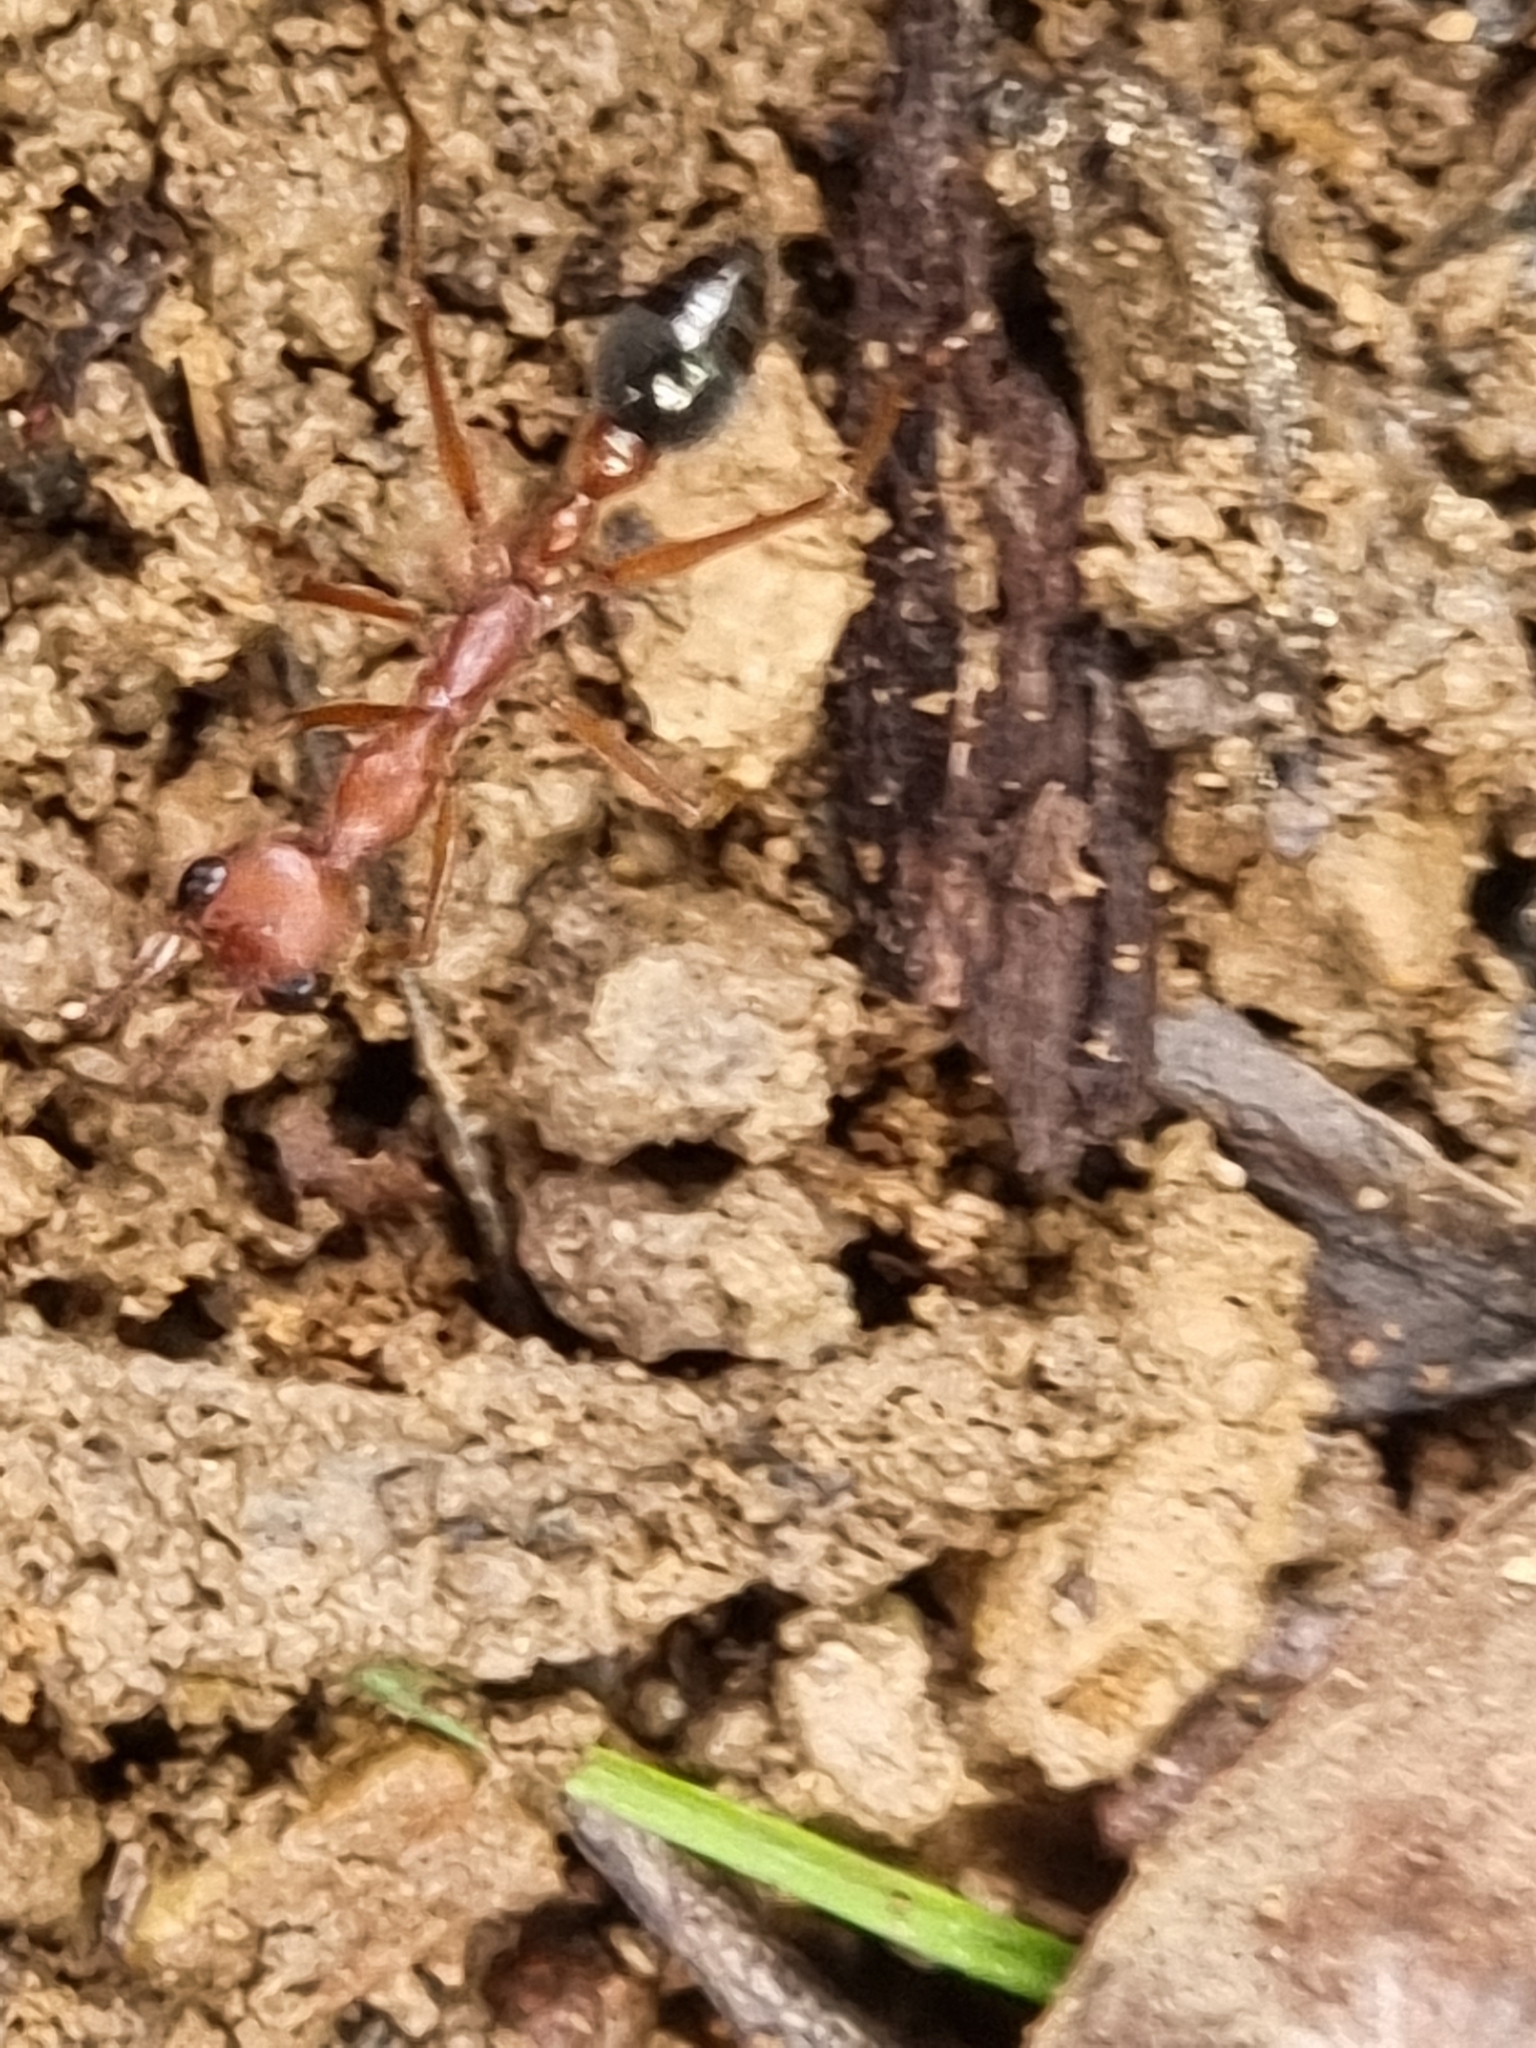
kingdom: Animalia
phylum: Arthropoda
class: Insecta
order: Hymenoptera
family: Formicidae
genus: Myrmecia
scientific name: Myrmecia brevinoda
